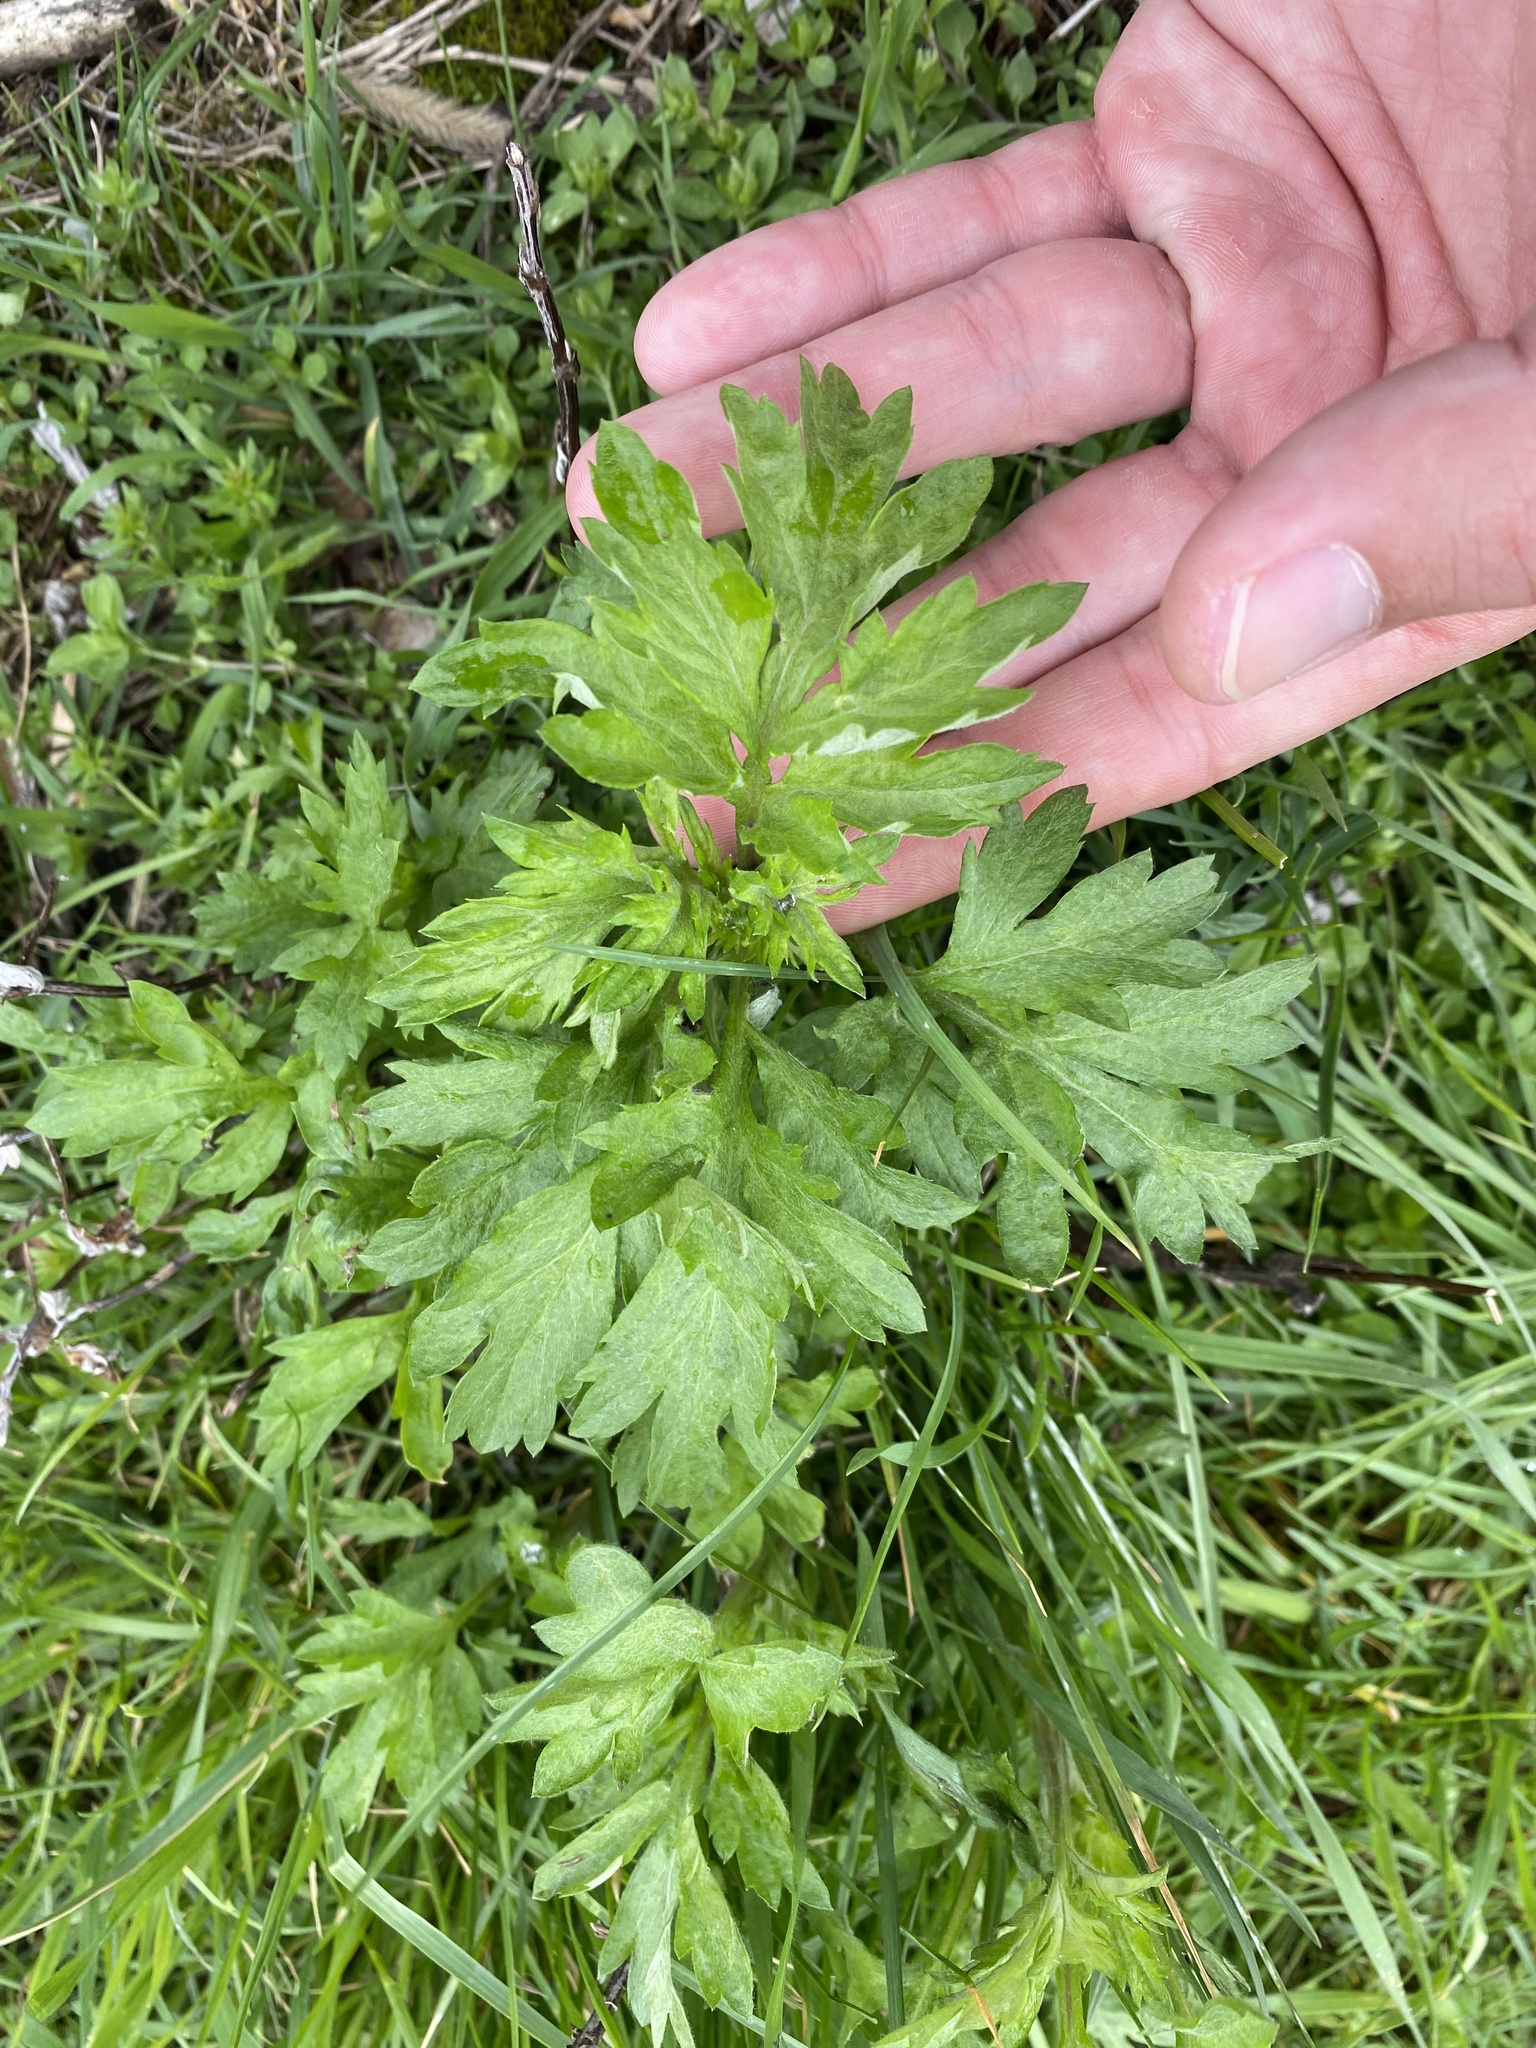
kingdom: Plantae
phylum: Tracheophyta
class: Magnoliopsida
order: Asterales
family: Asteraceae
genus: Artemisia
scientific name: Artemisia vulgaris
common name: Mugwort
